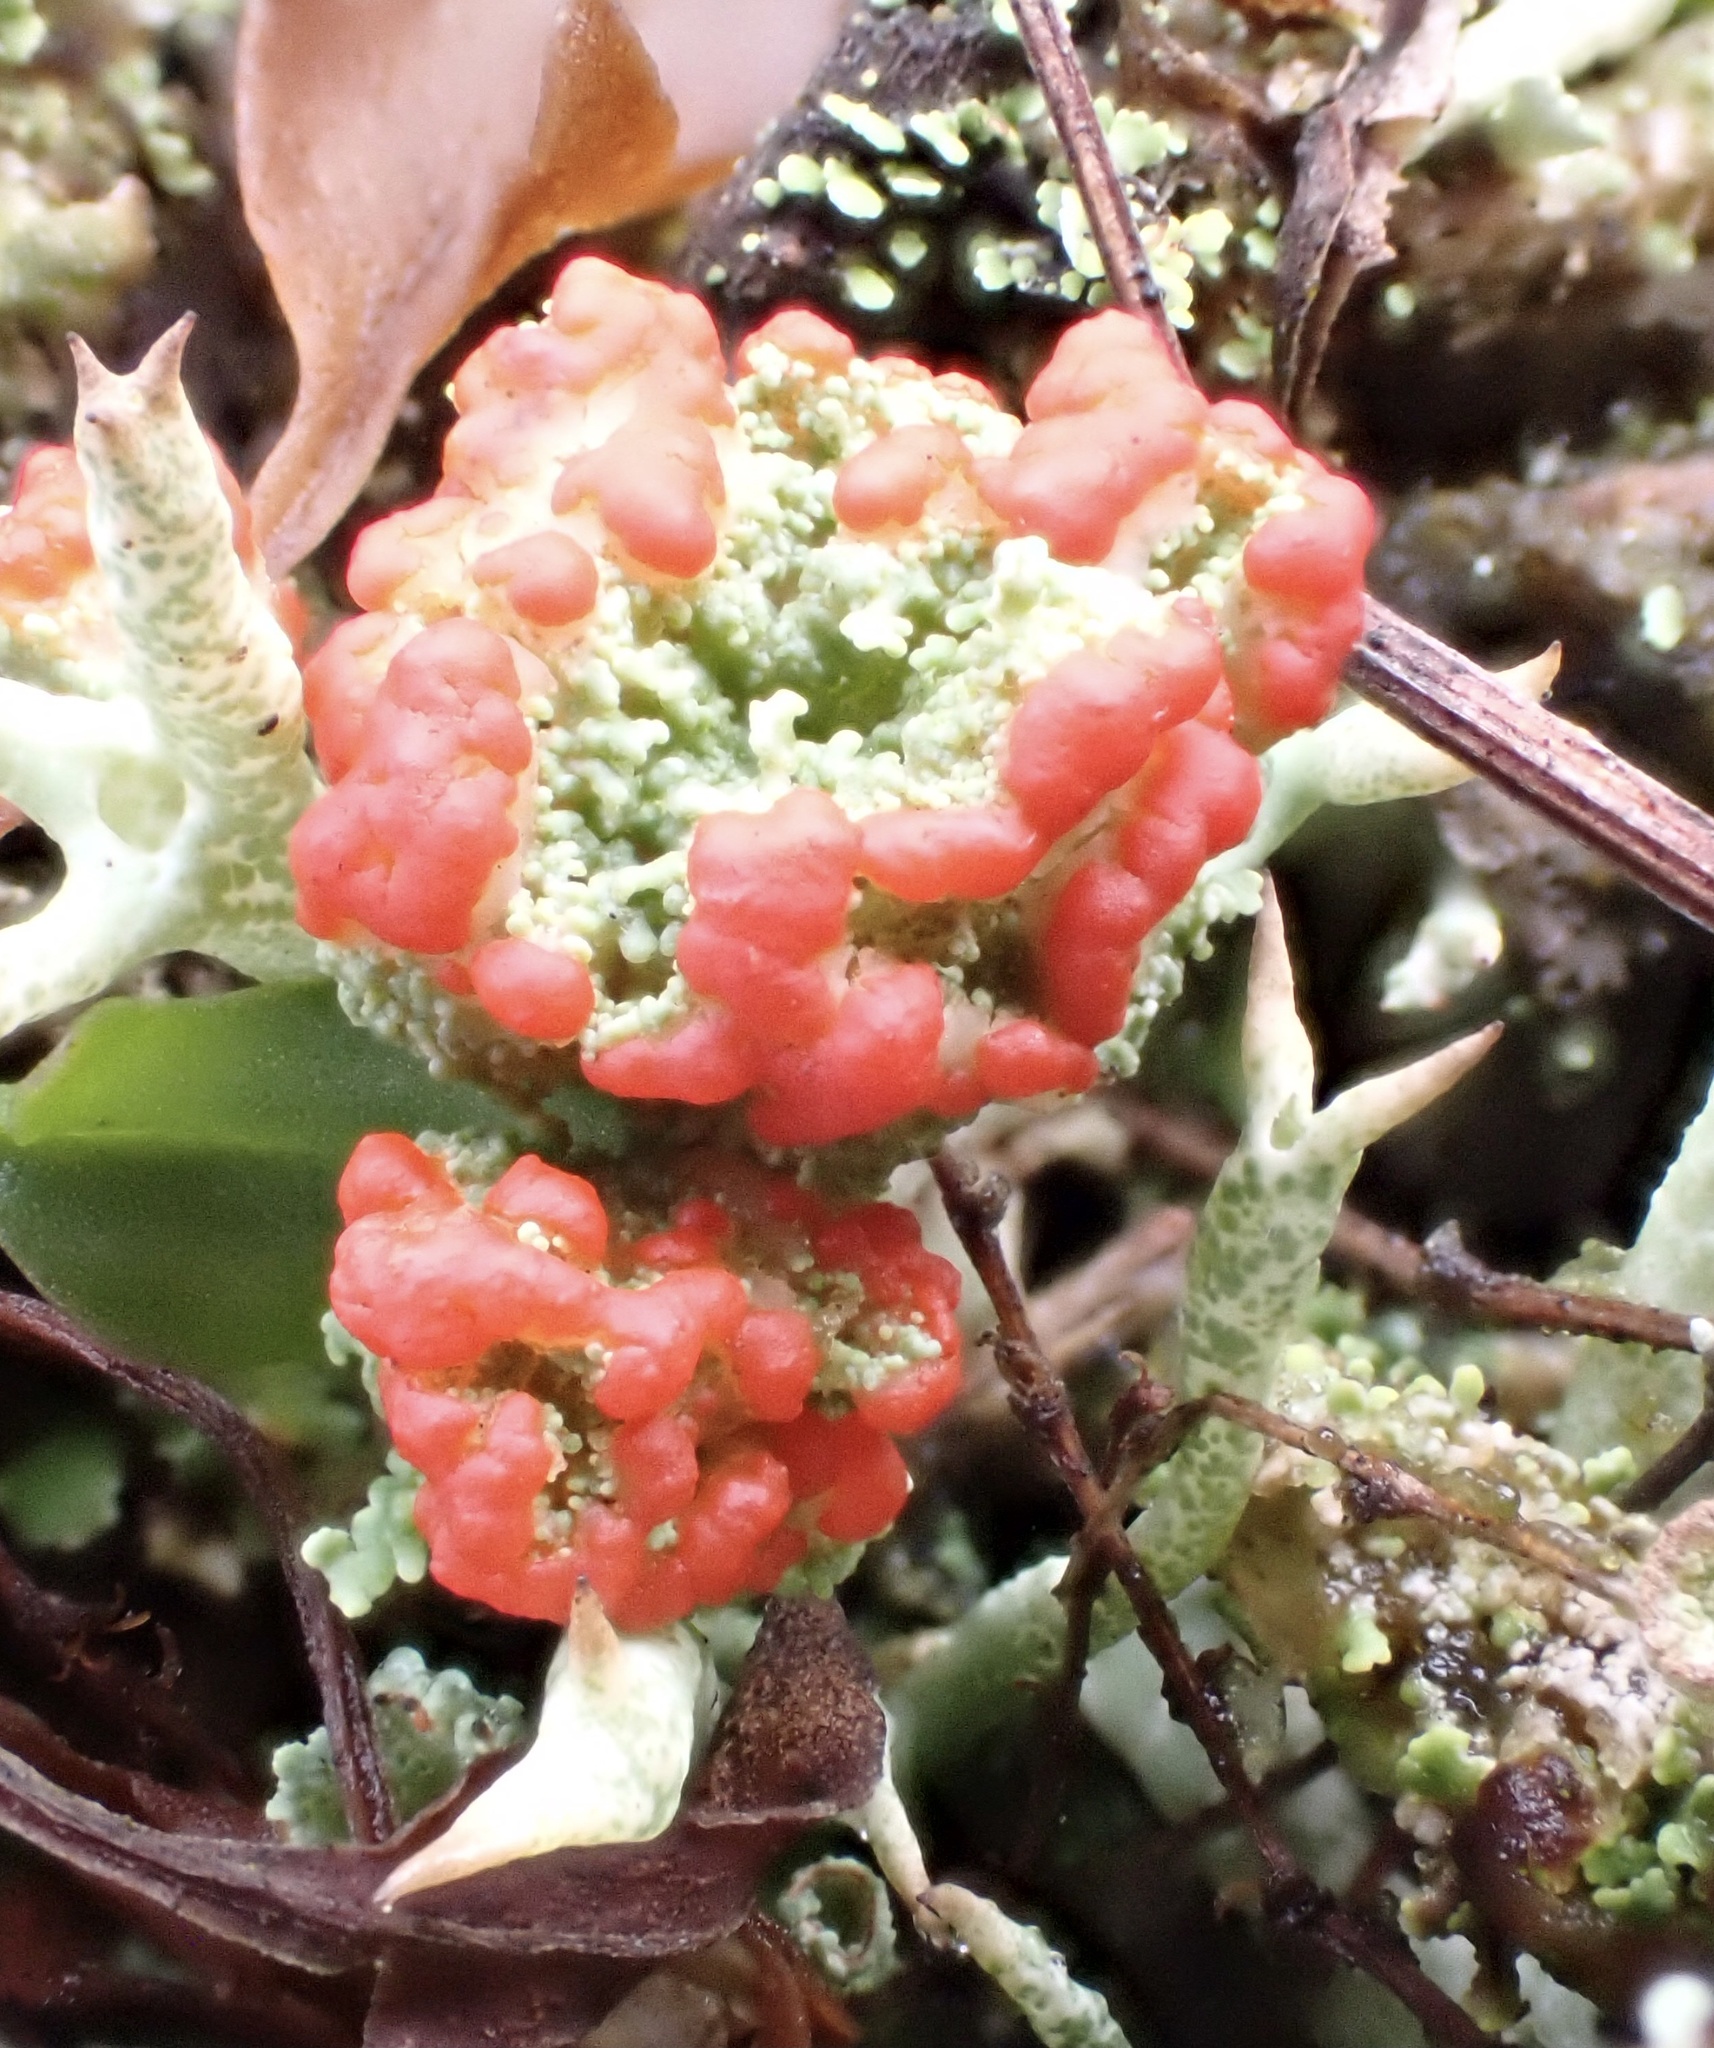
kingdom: Fungi
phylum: Ascomycota
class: Lecanoromycetes
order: Lecanorales
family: Cladoniaceae
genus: Cladonia
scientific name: Cladonia coccifera
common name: Scarlet-cup lichen
